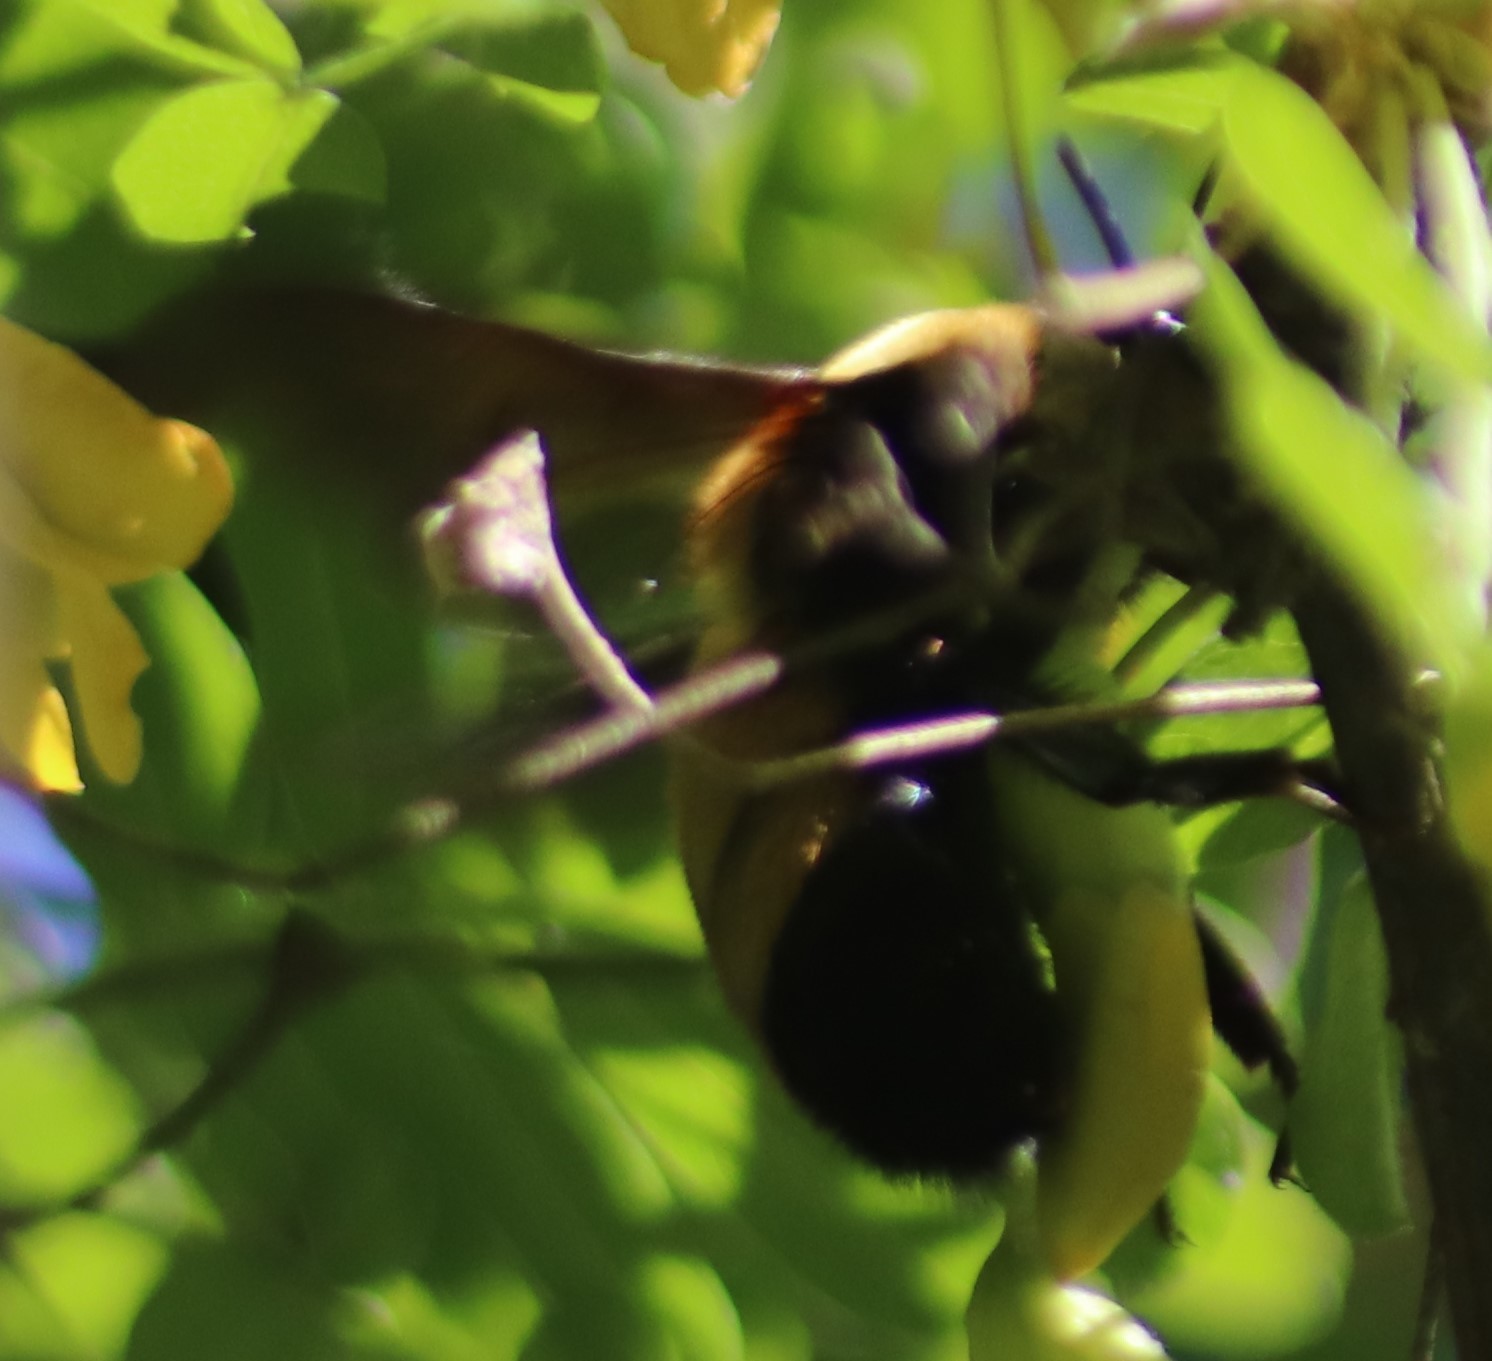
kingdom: Animalia
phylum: Arthropoda
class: Insecta
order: Hymenoptera
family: Apidae
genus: Bombus
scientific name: Bombus nevadensis
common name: Nevada bumble bee
